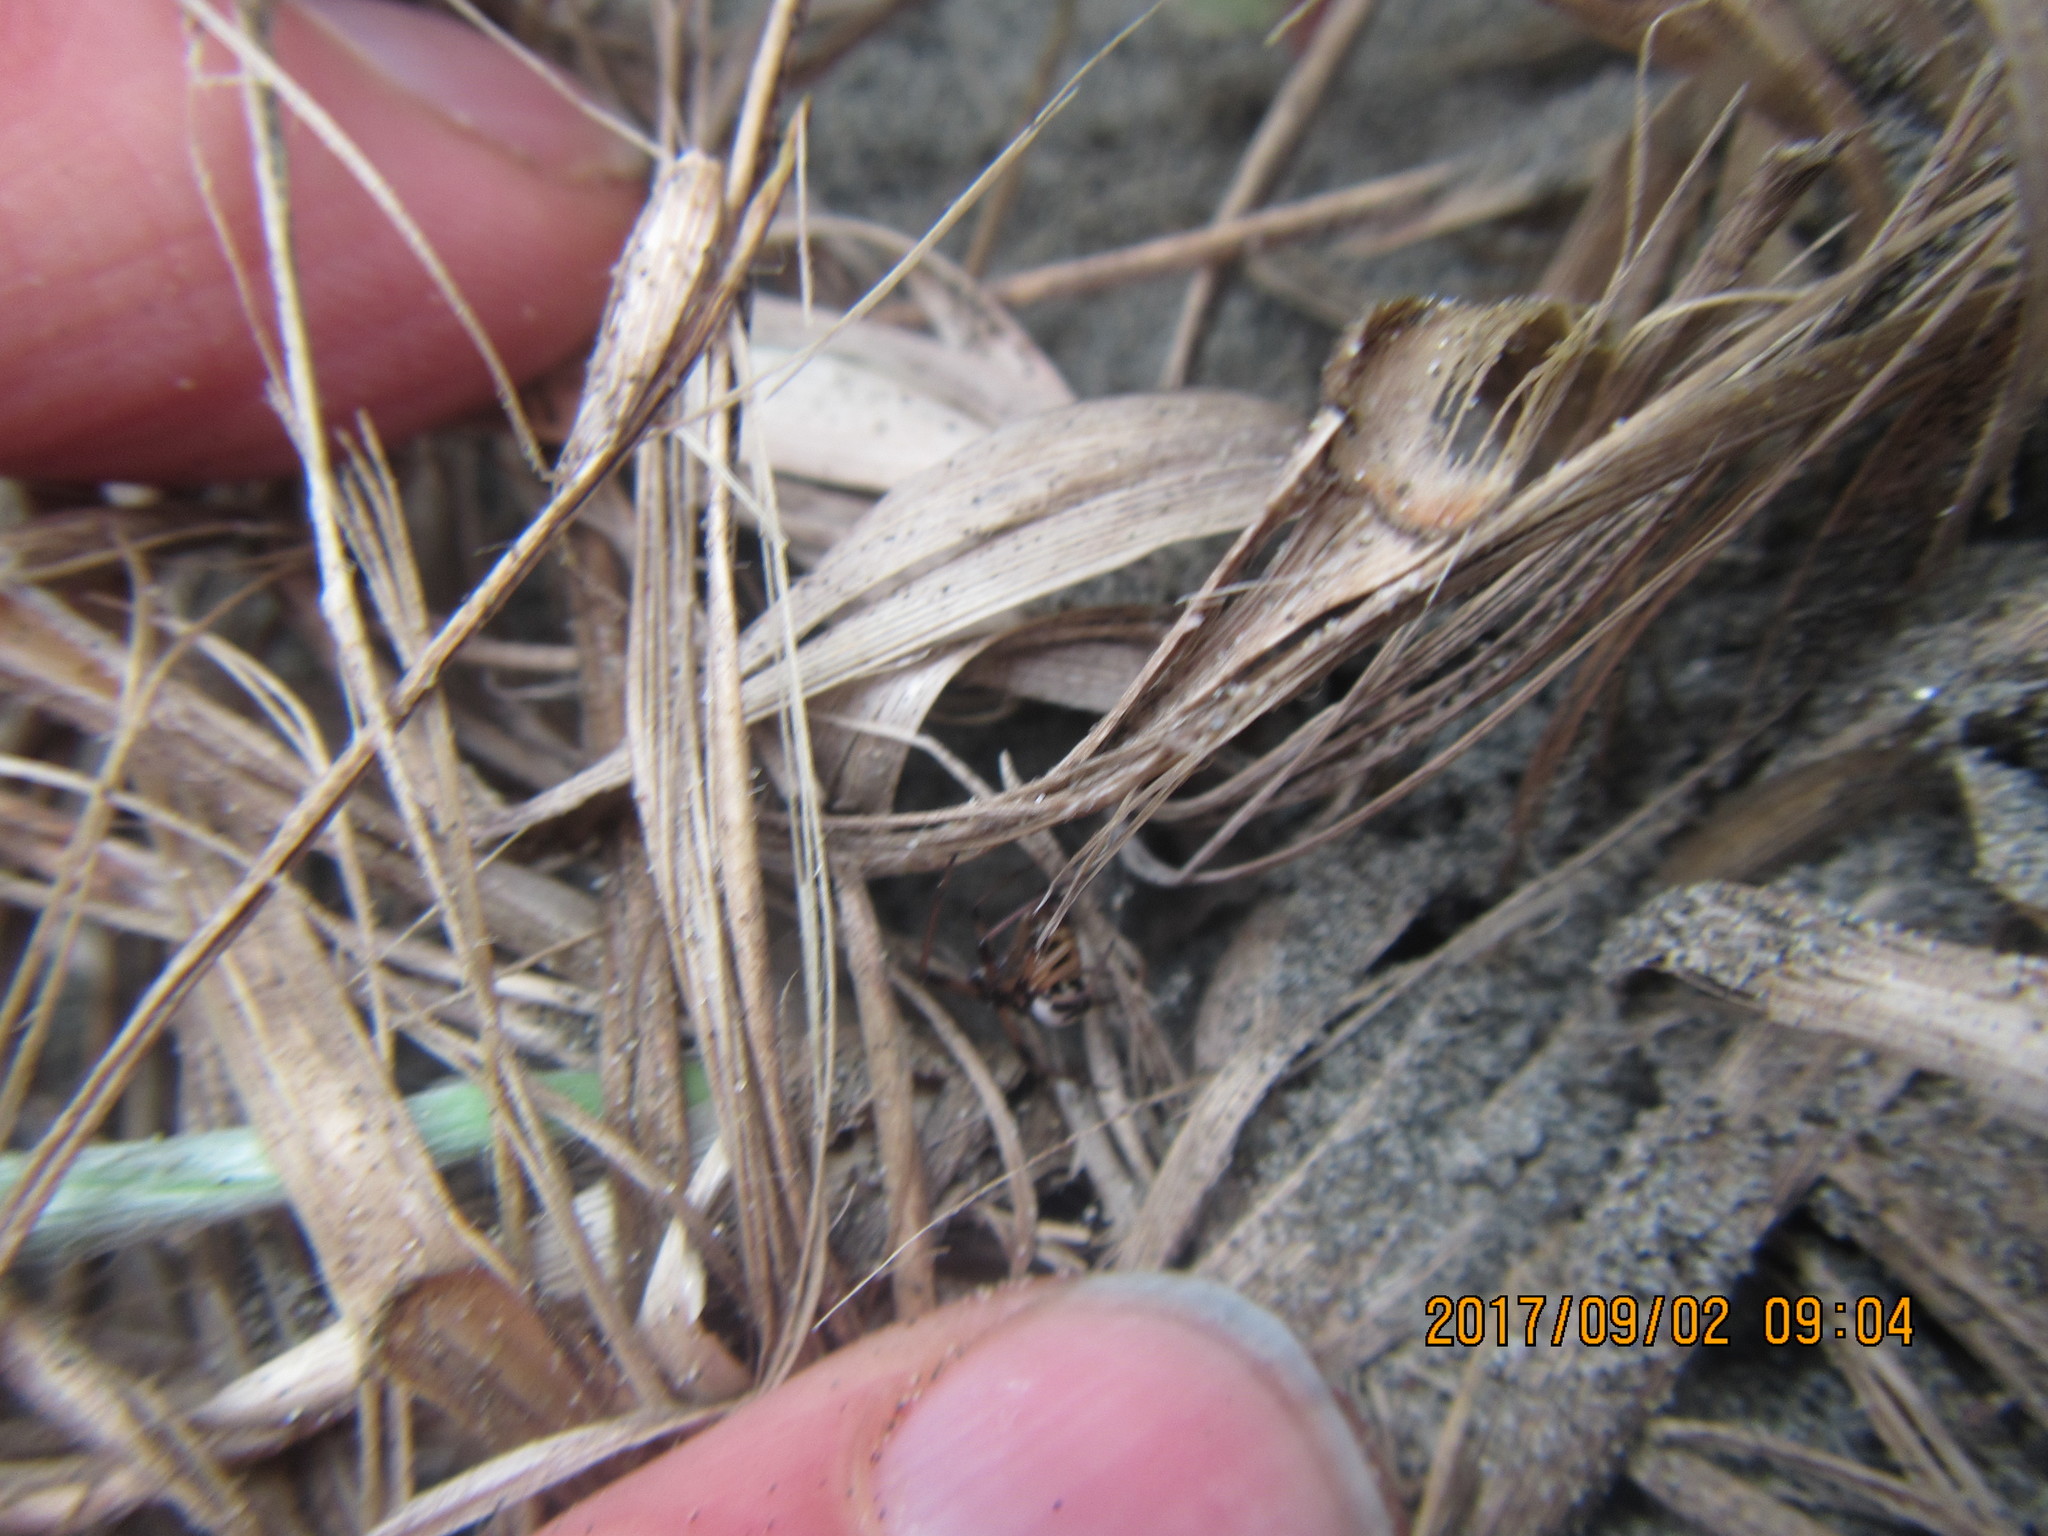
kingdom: Animalia
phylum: Arthropoda
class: Arachnida
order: Araneae
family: Theridiidae
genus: Latrodectus
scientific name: Latrodectus katipo
